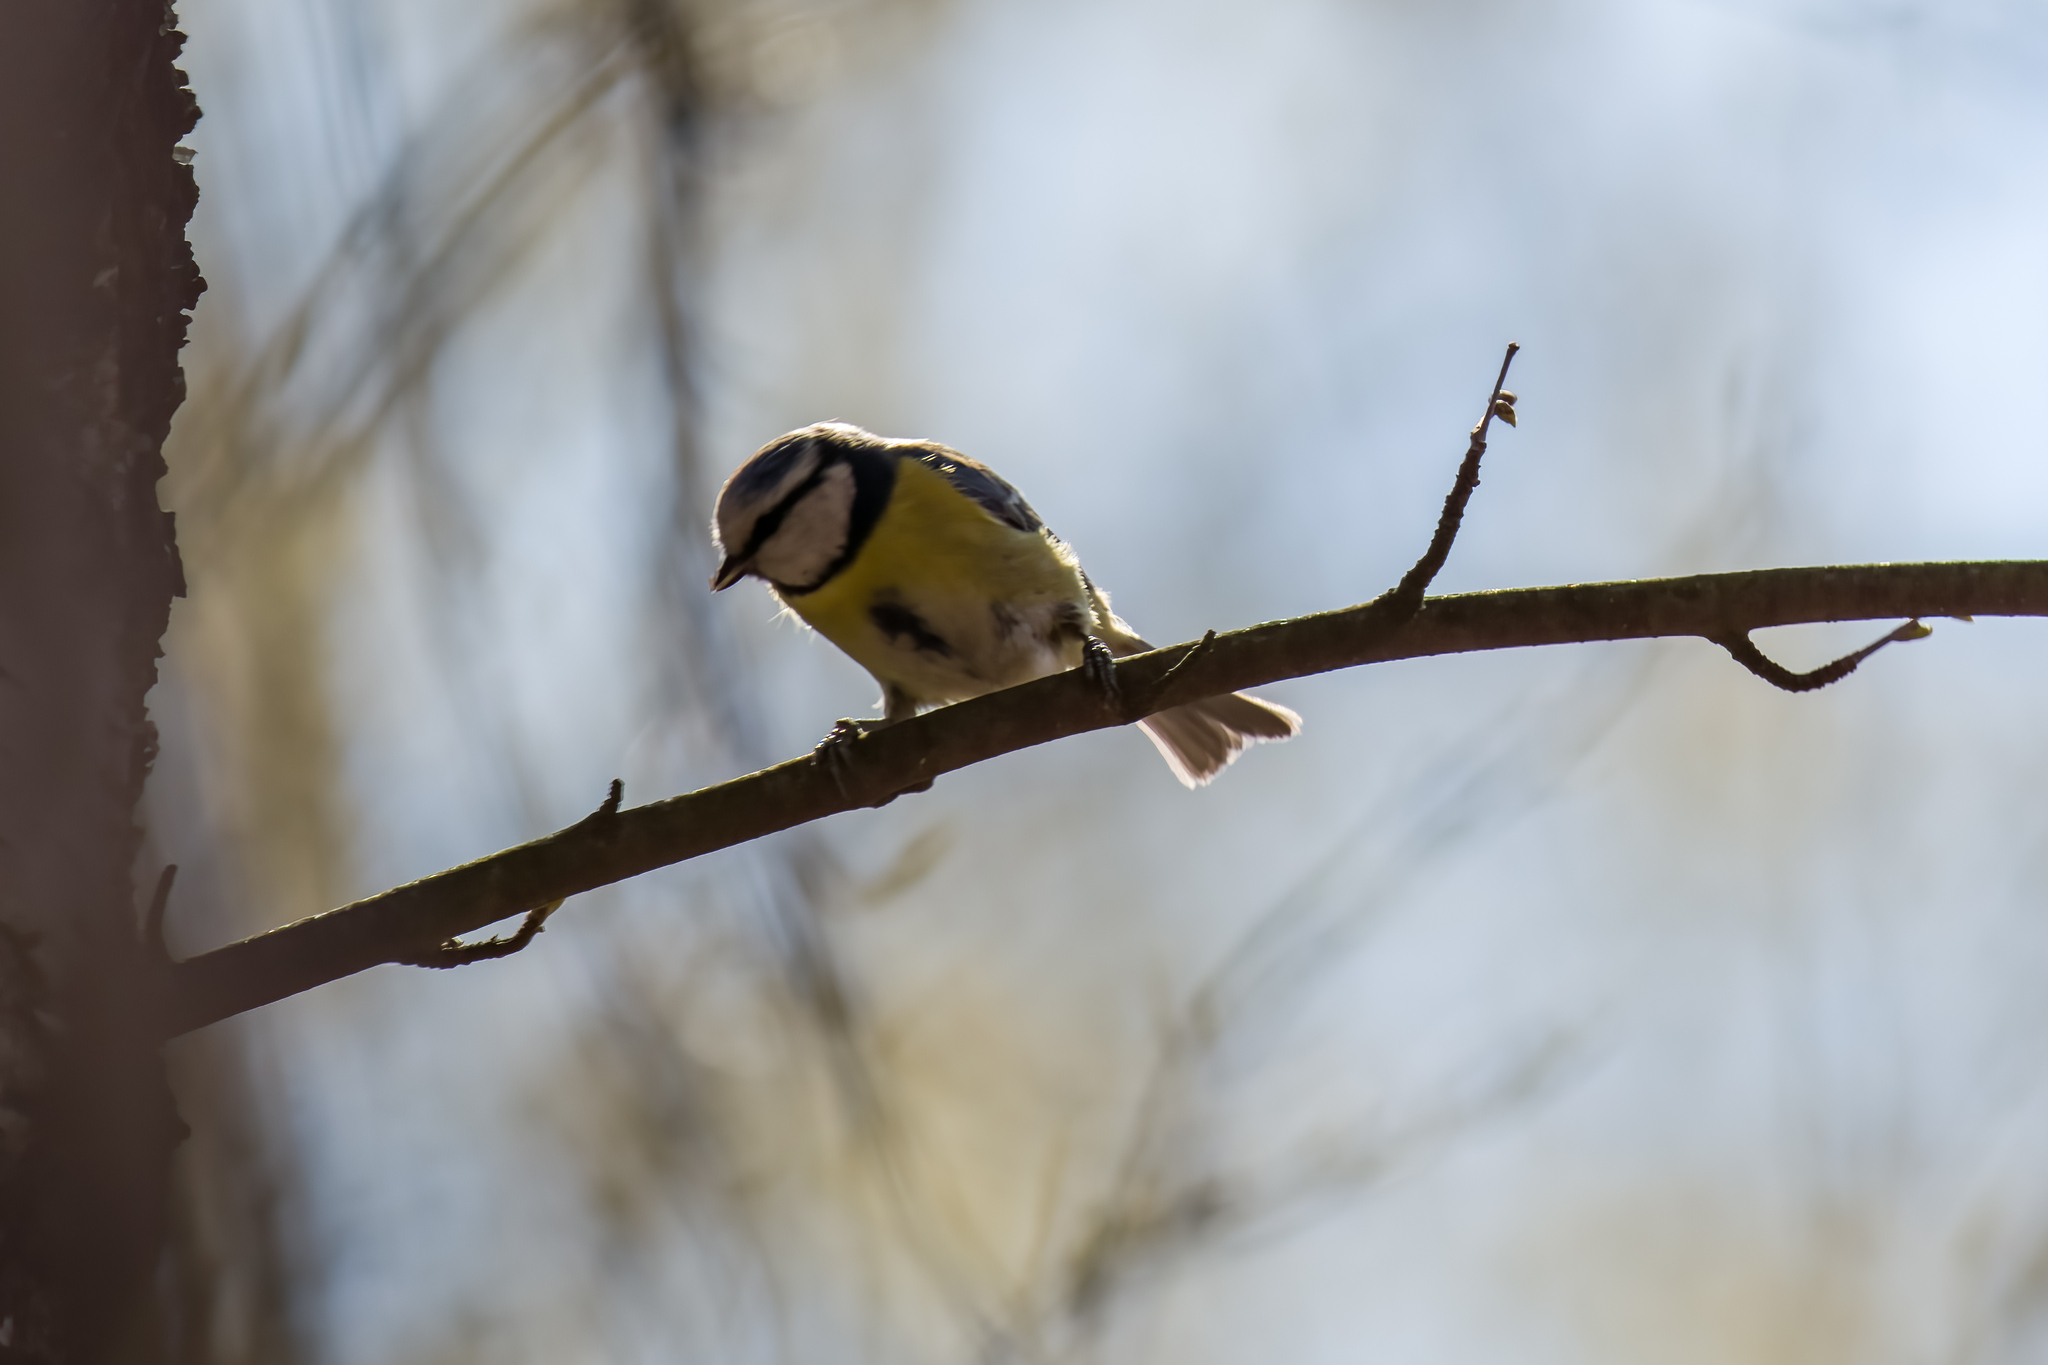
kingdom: Animalia
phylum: Chordata
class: Aves
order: Passeriformes
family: Paridae
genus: Cyanistes
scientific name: Cyanistes caeruleus
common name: Eurasian blue tit
